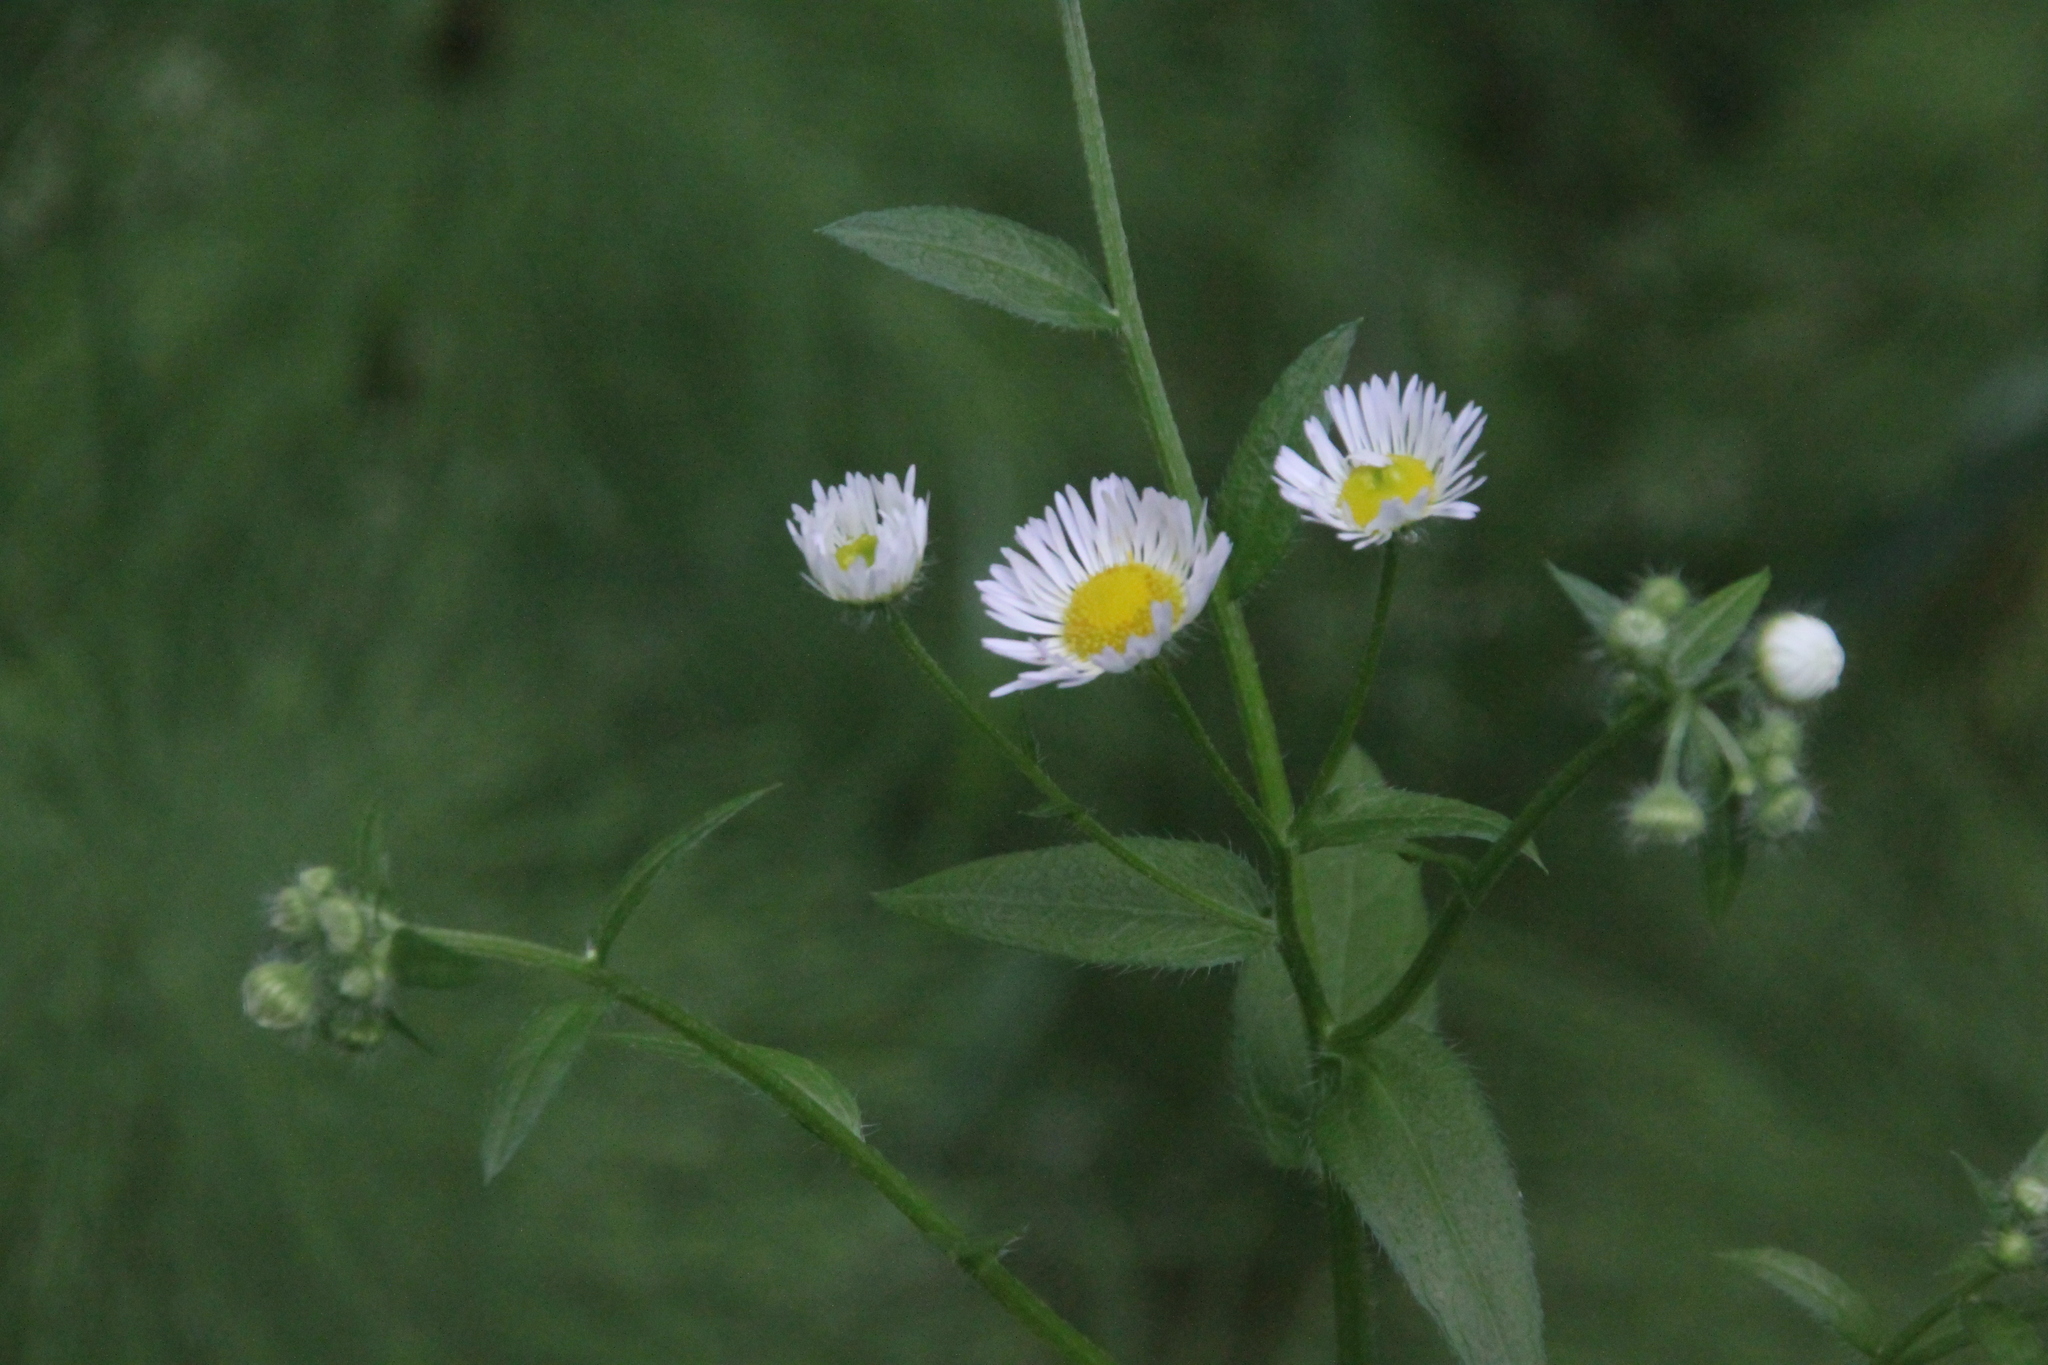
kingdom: Plantae
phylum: Tracheophyta
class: Magnoliopsida
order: Asterales
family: Asteraceae
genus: Erigeron
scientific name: Erigeron annuus
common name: Tall fleabane
